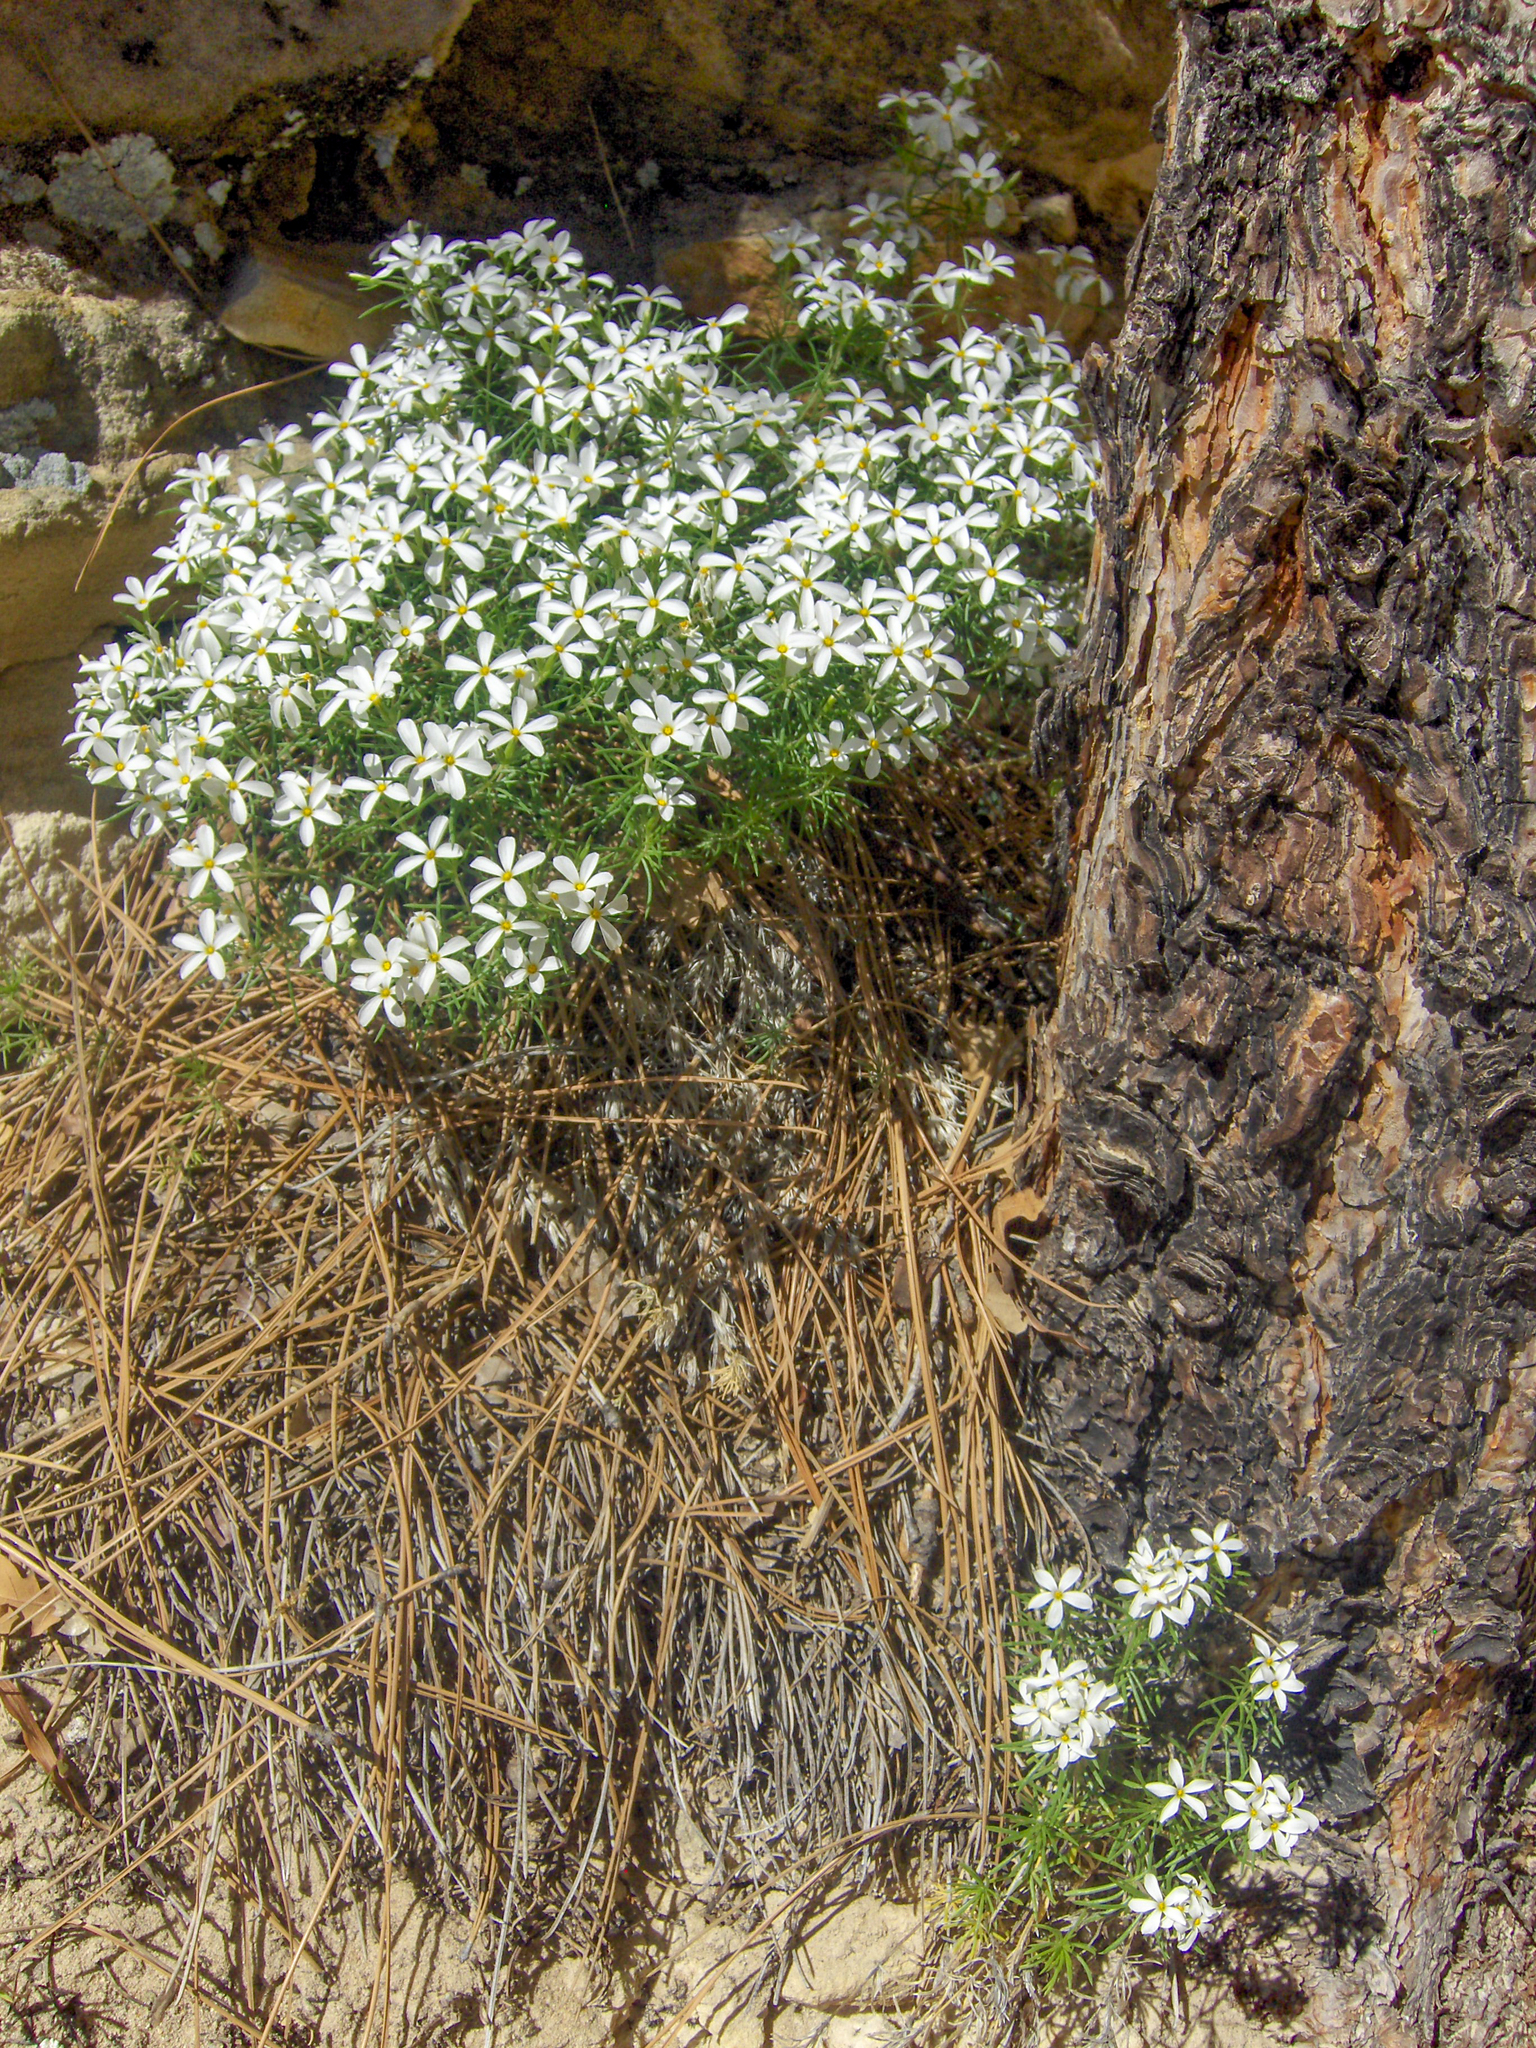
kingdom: Plantae
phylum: Tracheophyta
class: Magnoliopsida
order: Ericales
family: Polemoniaceae
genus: Leptosiphon
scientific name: Leptosiphon nuttallii
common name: Nuttall's linanthus
